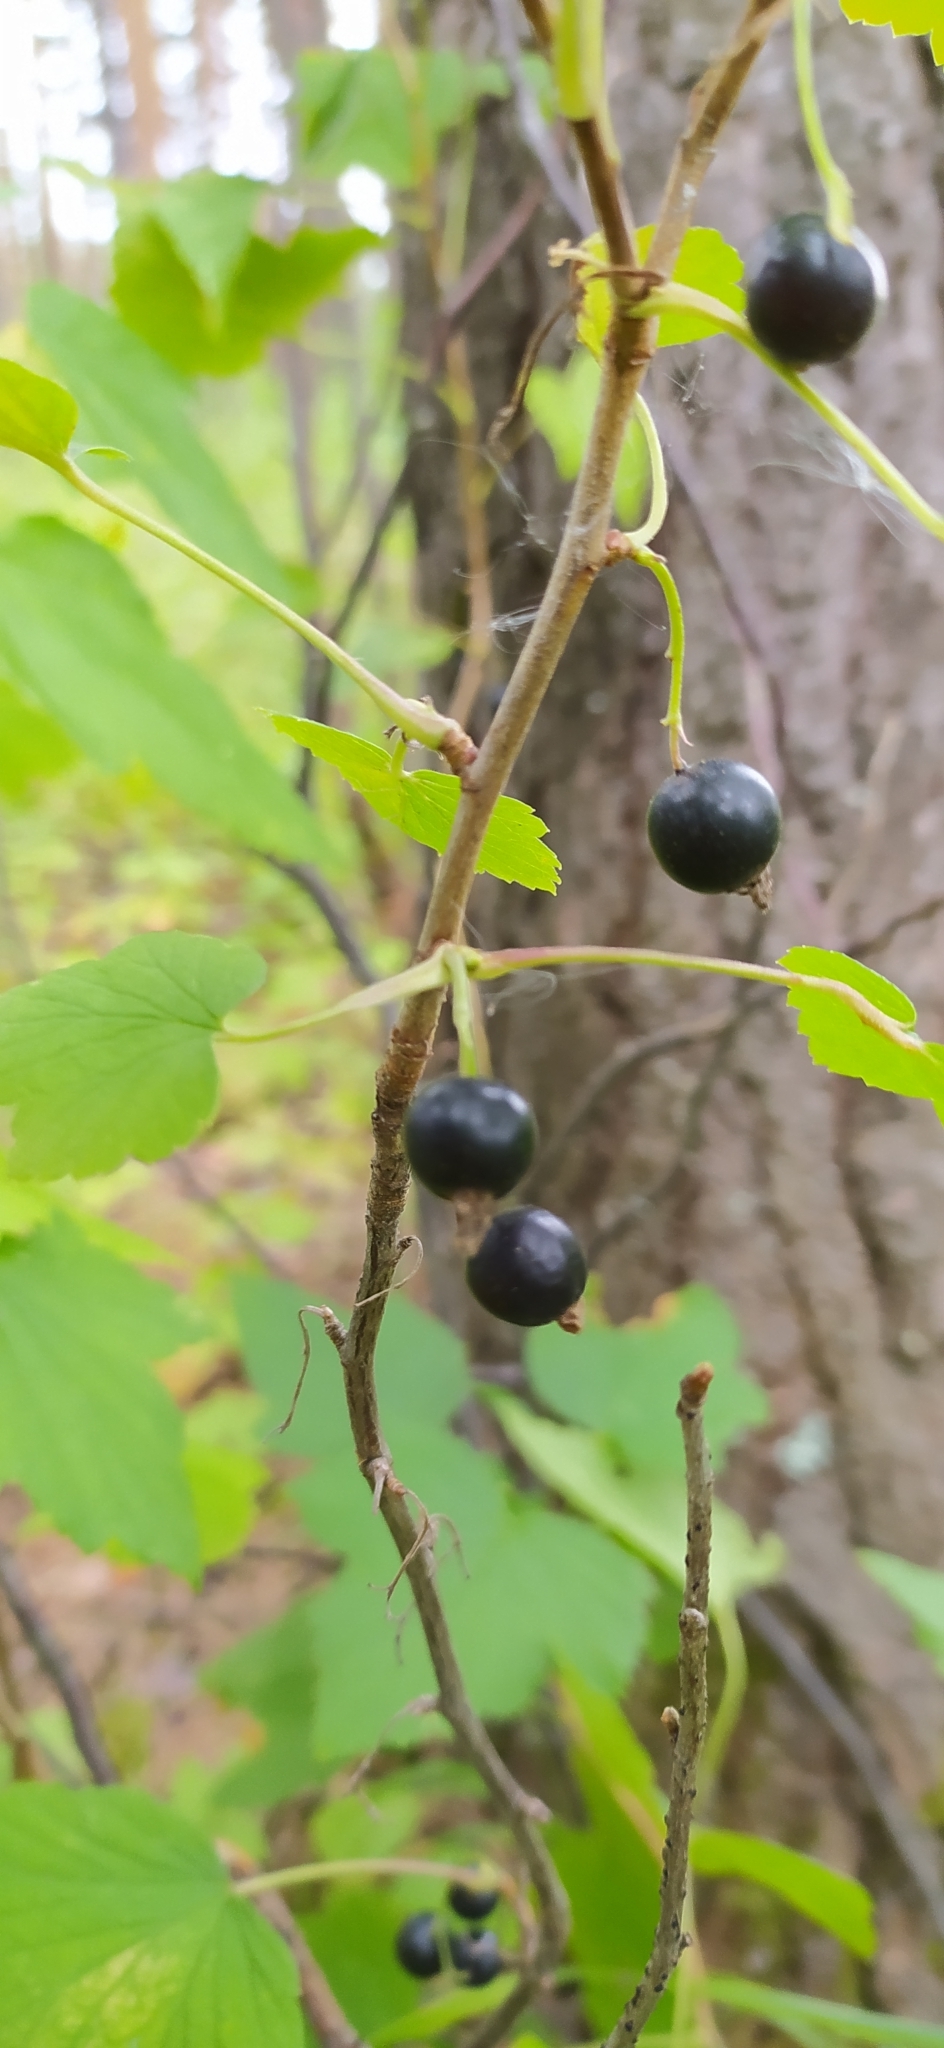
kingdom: Plantae
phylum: Tracheophyta
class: Magnoliopsida
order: Saxifragales
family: Grossulariaceae
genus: Ribes
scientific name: Ribes nigrum
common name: Black currant
